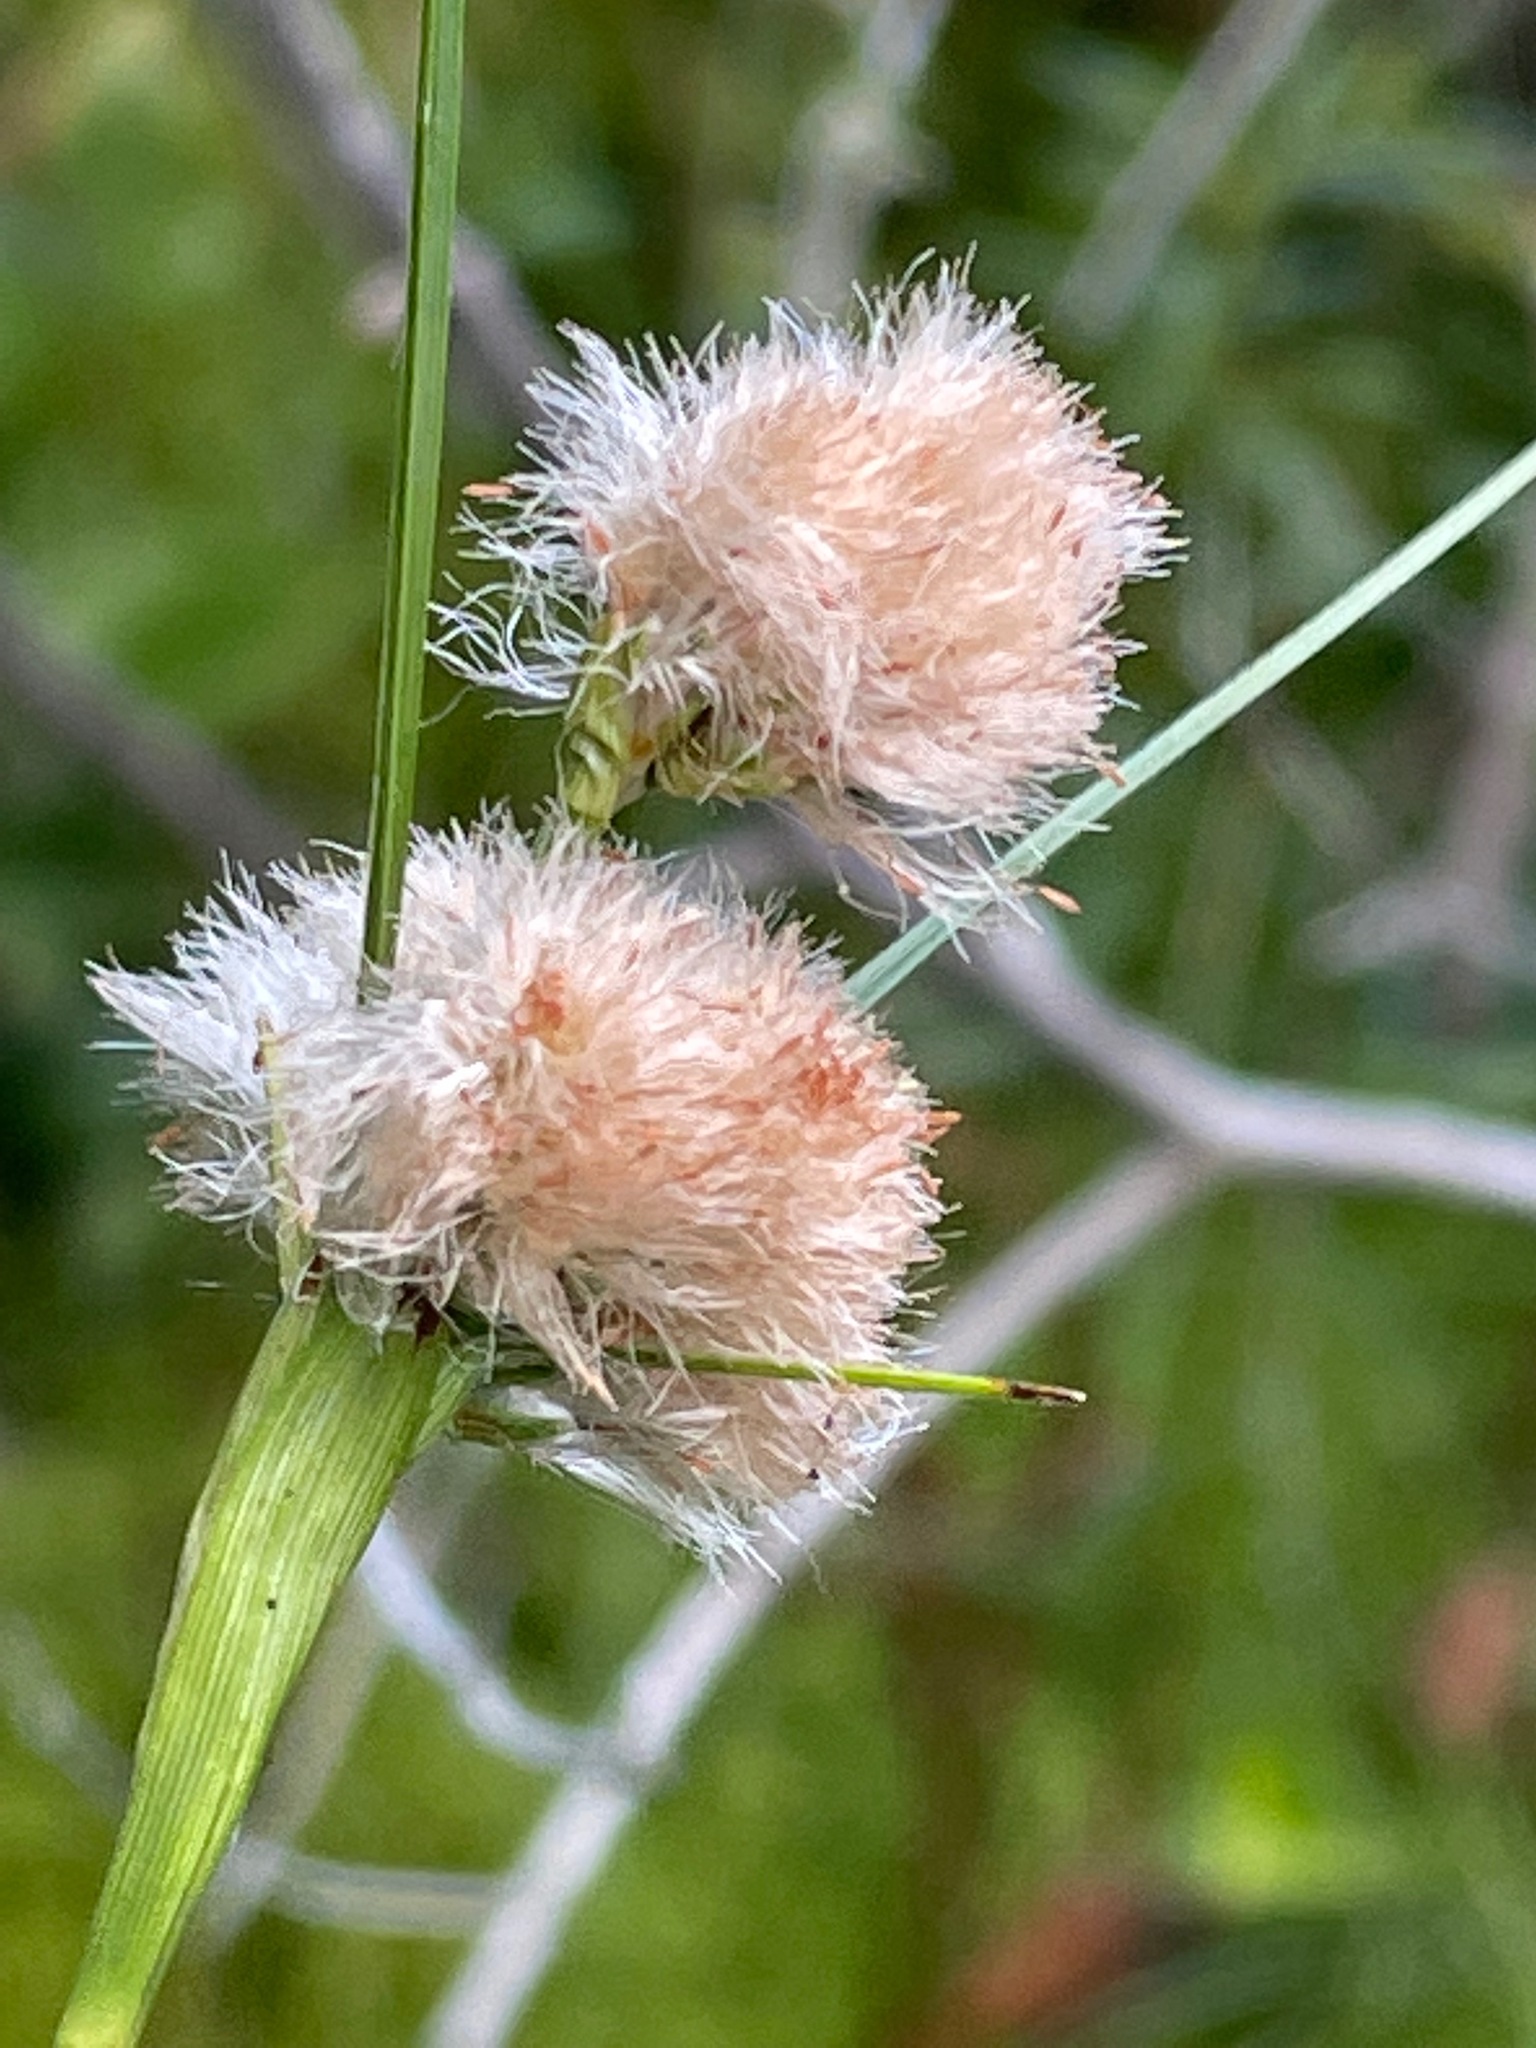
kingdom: Plantae
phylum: Tracheophyta
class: Liliopsida
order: Poales
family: Cyperaceae
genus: Eriophorum
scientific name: Eriophorum virginicum
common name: Tawny cottongrass
